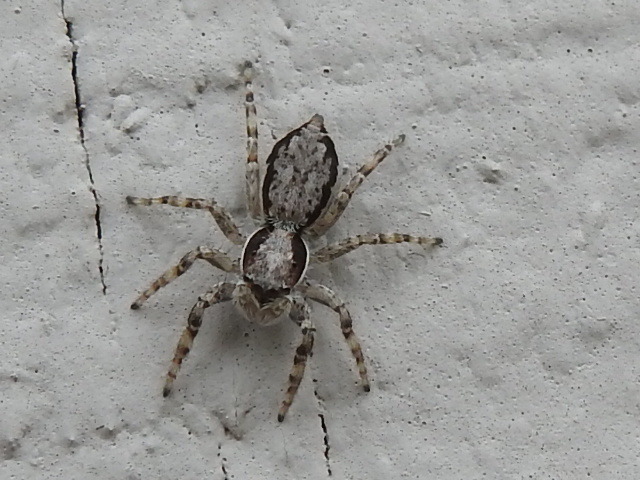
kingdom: Animalia
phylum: Arthropoda
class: Arachnida
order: Araneae
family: Salticidae
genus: Menemerus
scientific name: Menemerus bivittatus
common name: Gray wall jumper
